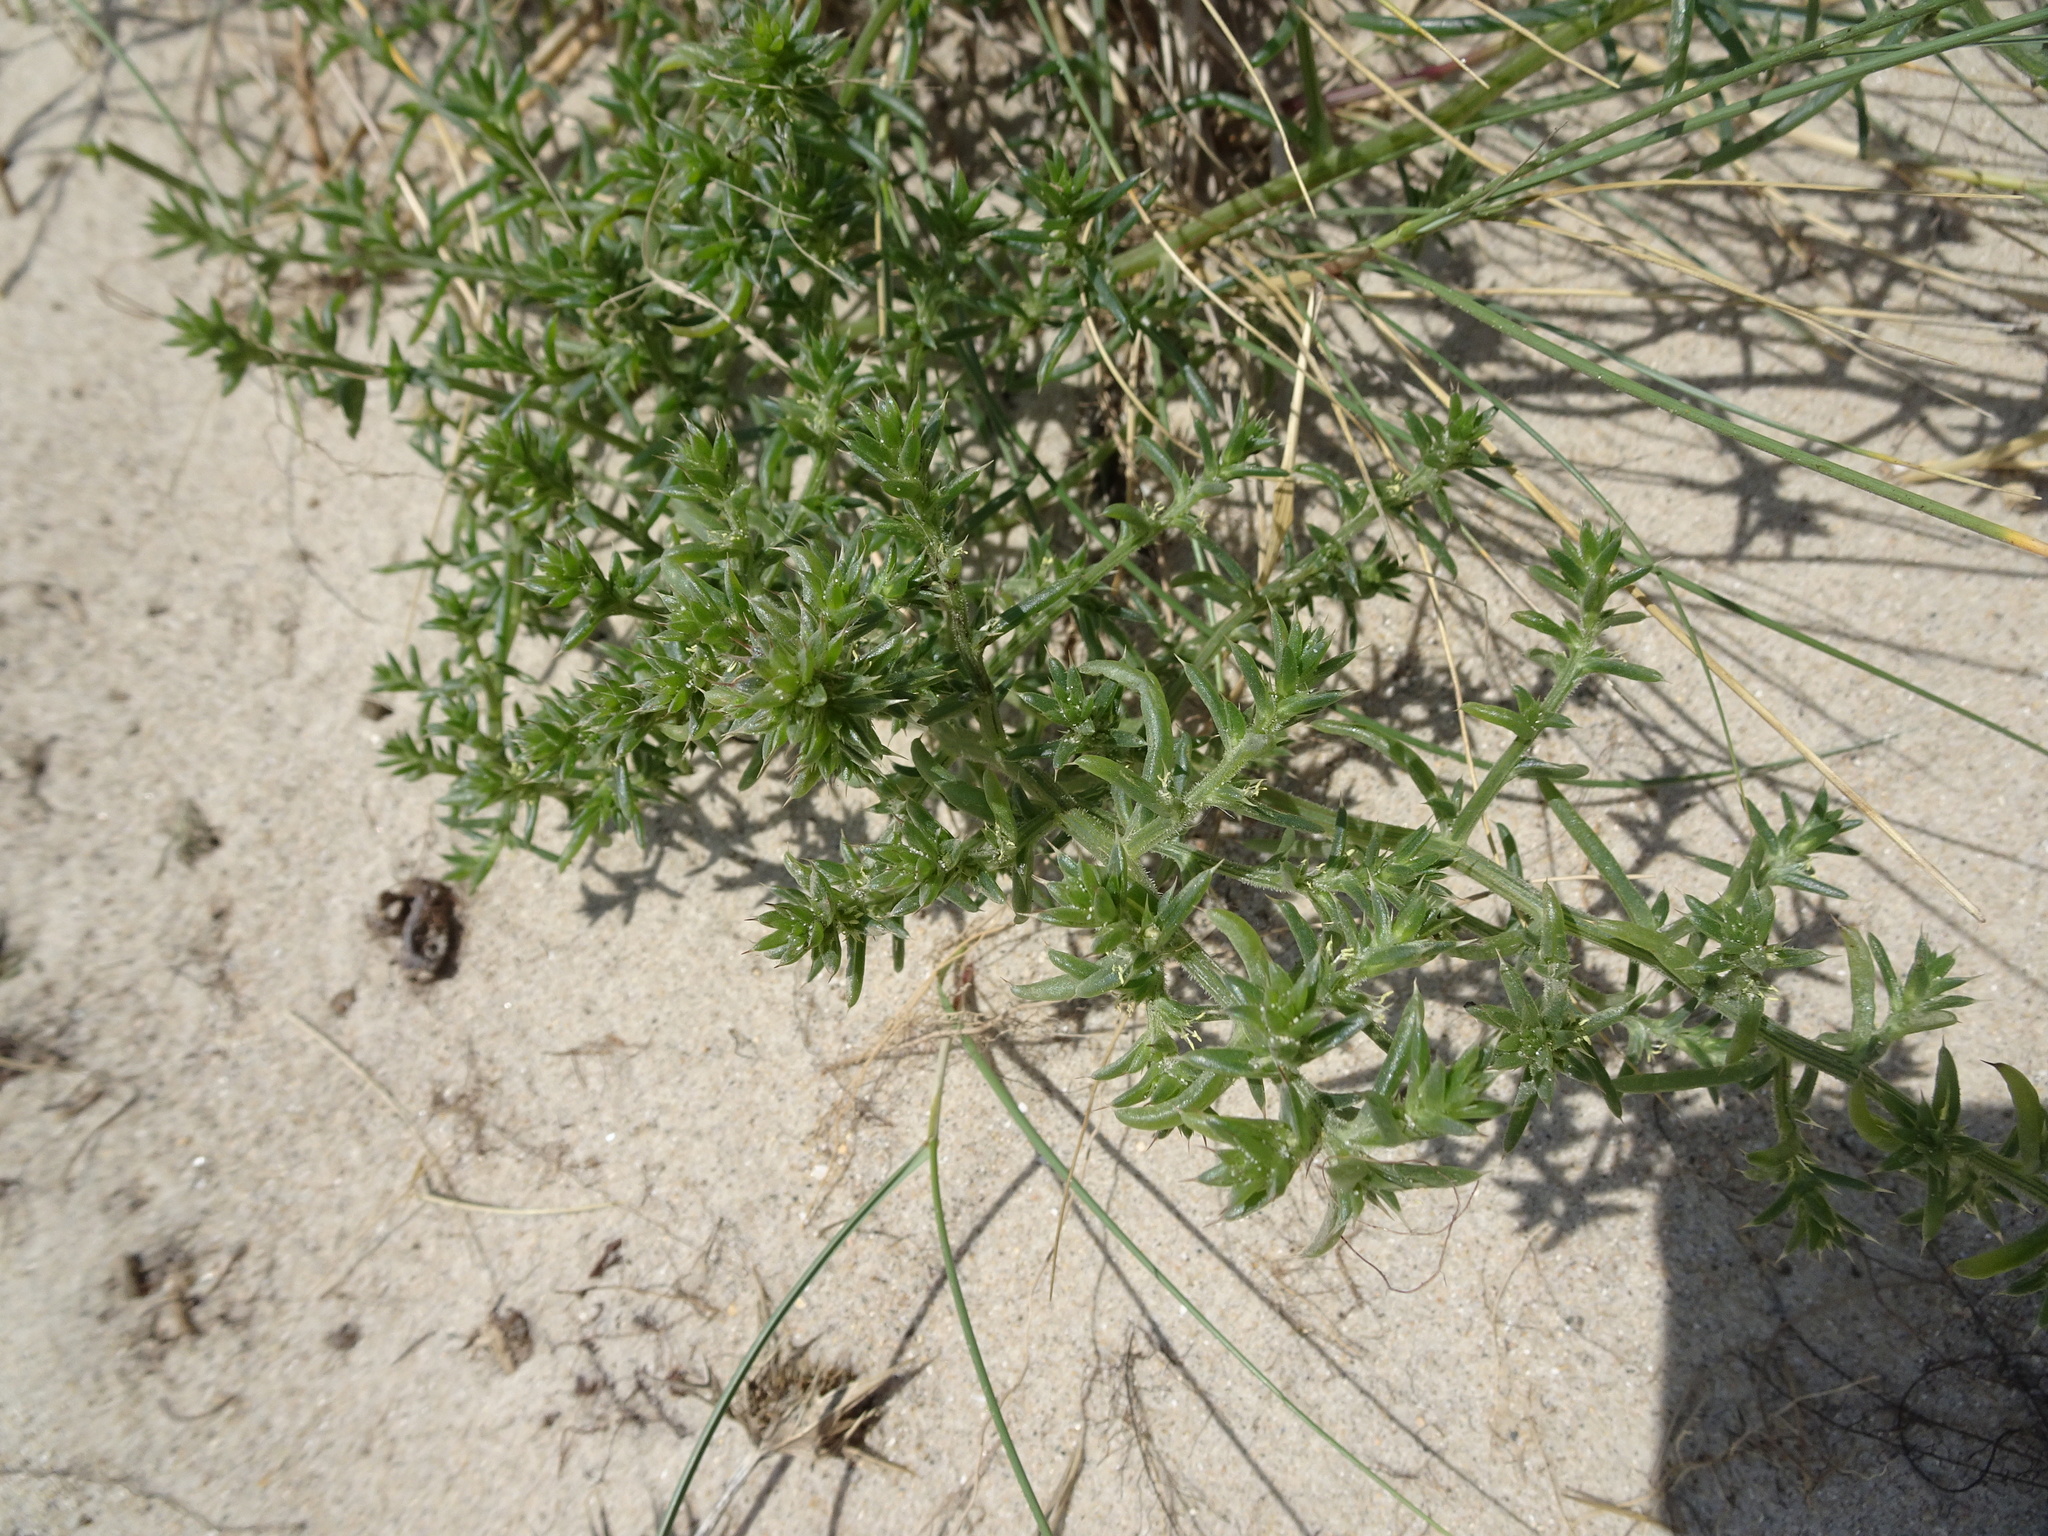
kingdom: Plantae
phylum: Tracheophyta
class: Magnoliopsida
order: Caryophyllales
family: Amaranthaceae
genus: Salsola
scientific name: Salsola kali
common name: Saltwort
